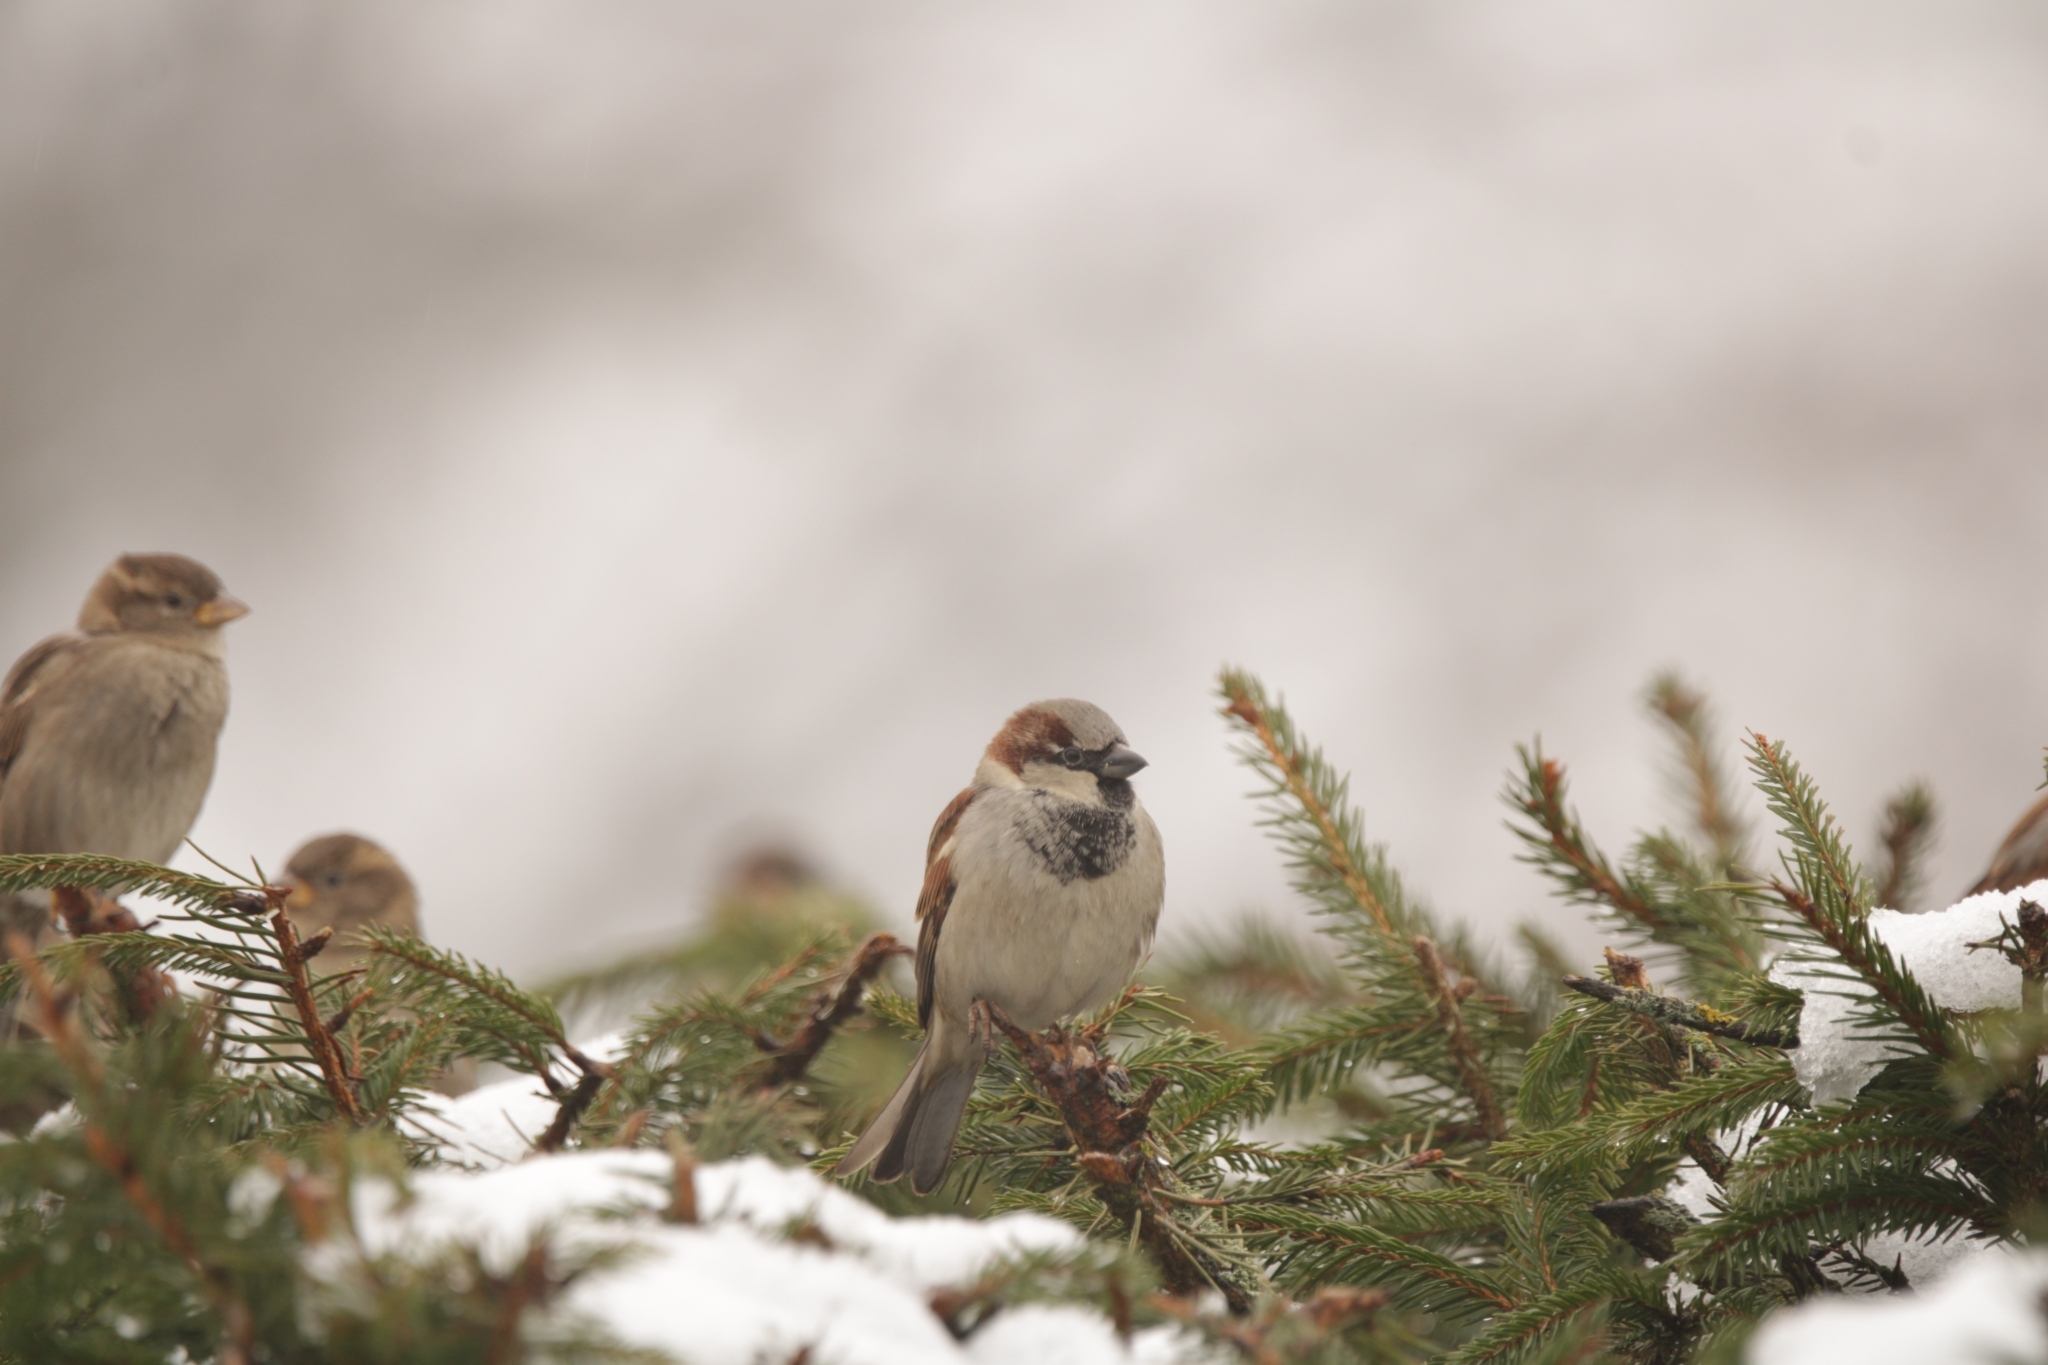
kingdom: Animalia
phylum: Chordata
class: Aves
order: Passeriformes
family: Passeridae
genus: Passer
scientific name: Passer domesticus
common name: House sparrow
